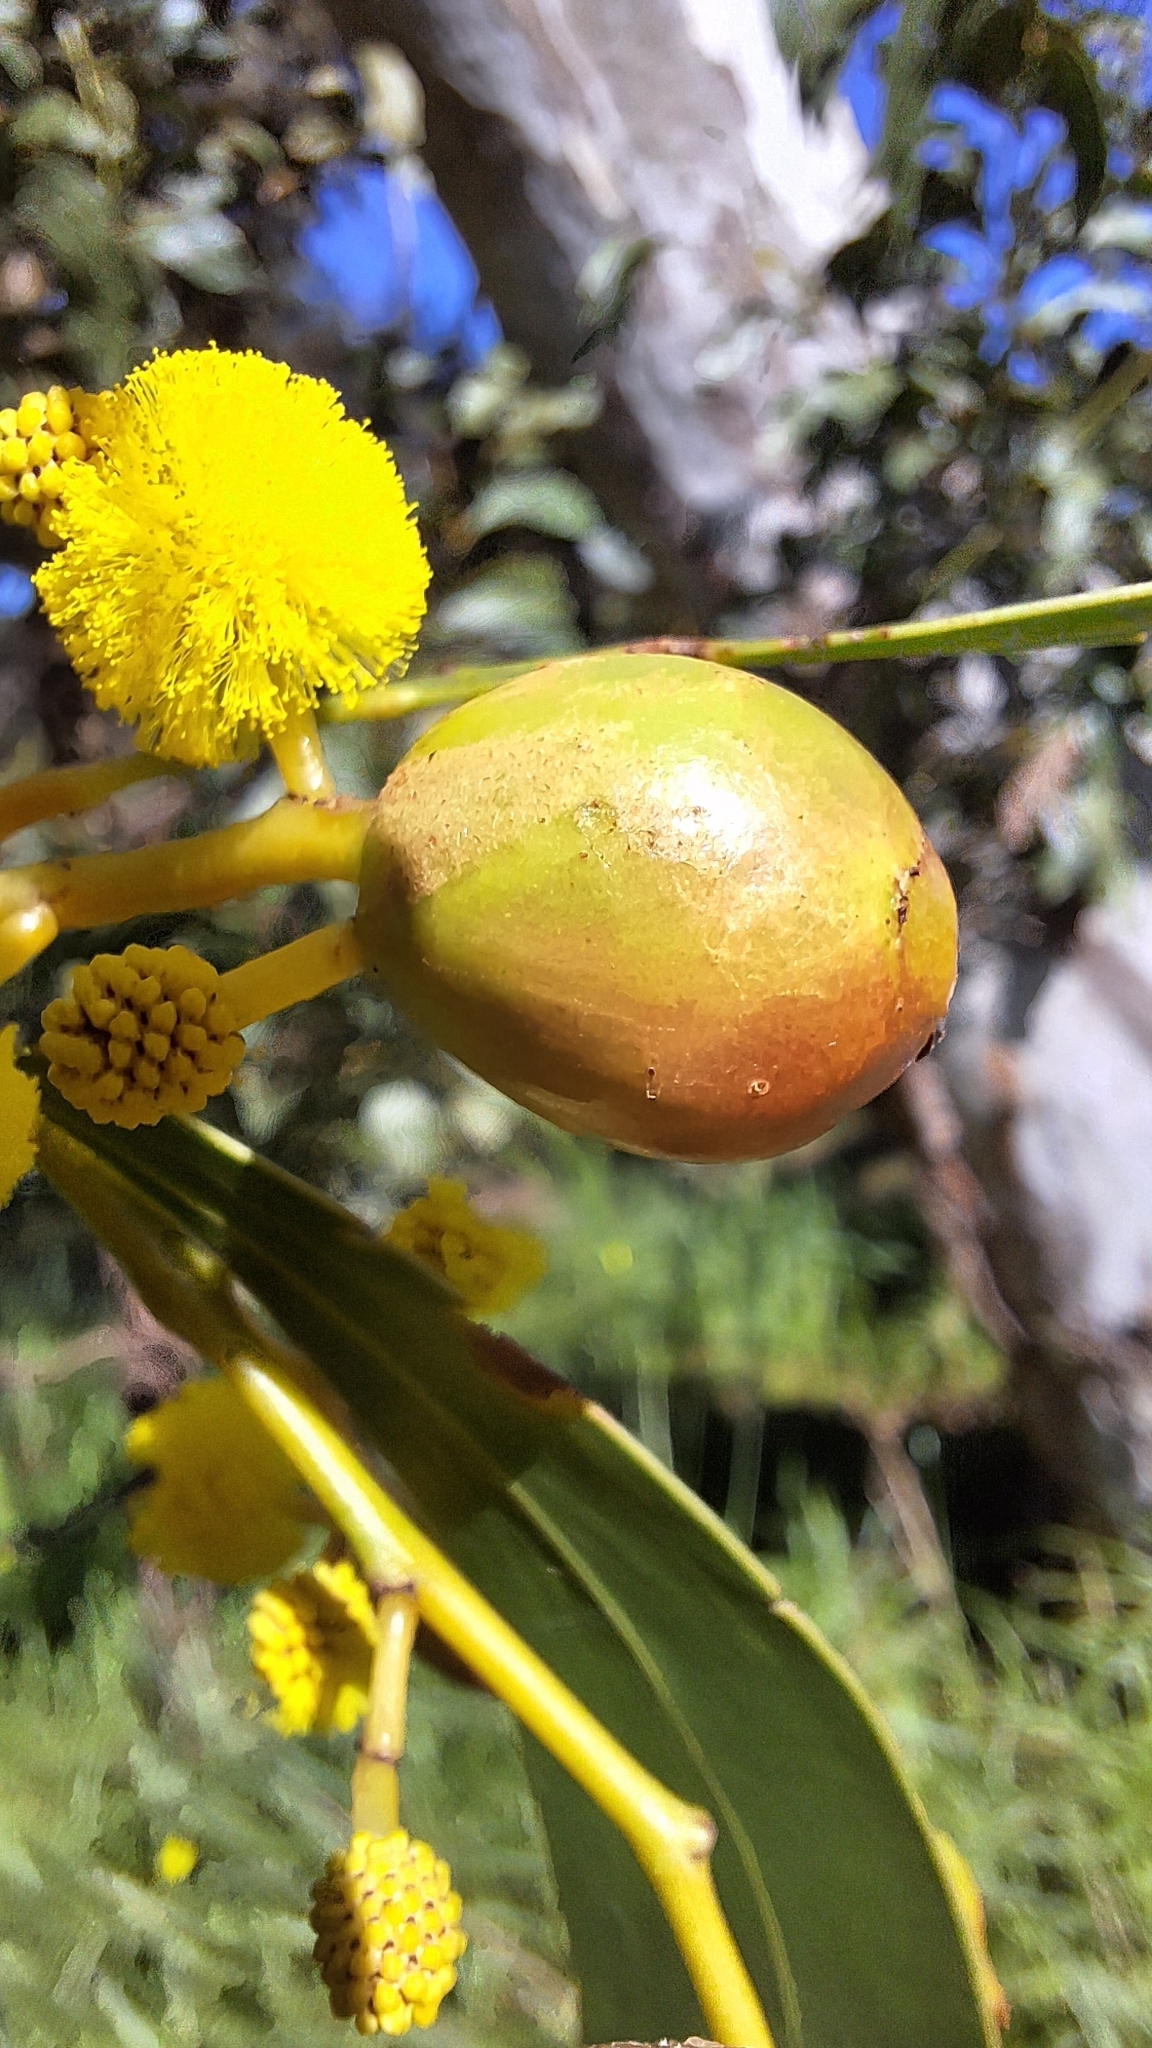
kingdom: Animalia
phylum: Arthropoda
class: Insecta
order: Hymenoptera
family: Pteromalidae
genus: Trichilogaster
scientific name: Trichilogaster signiventris
